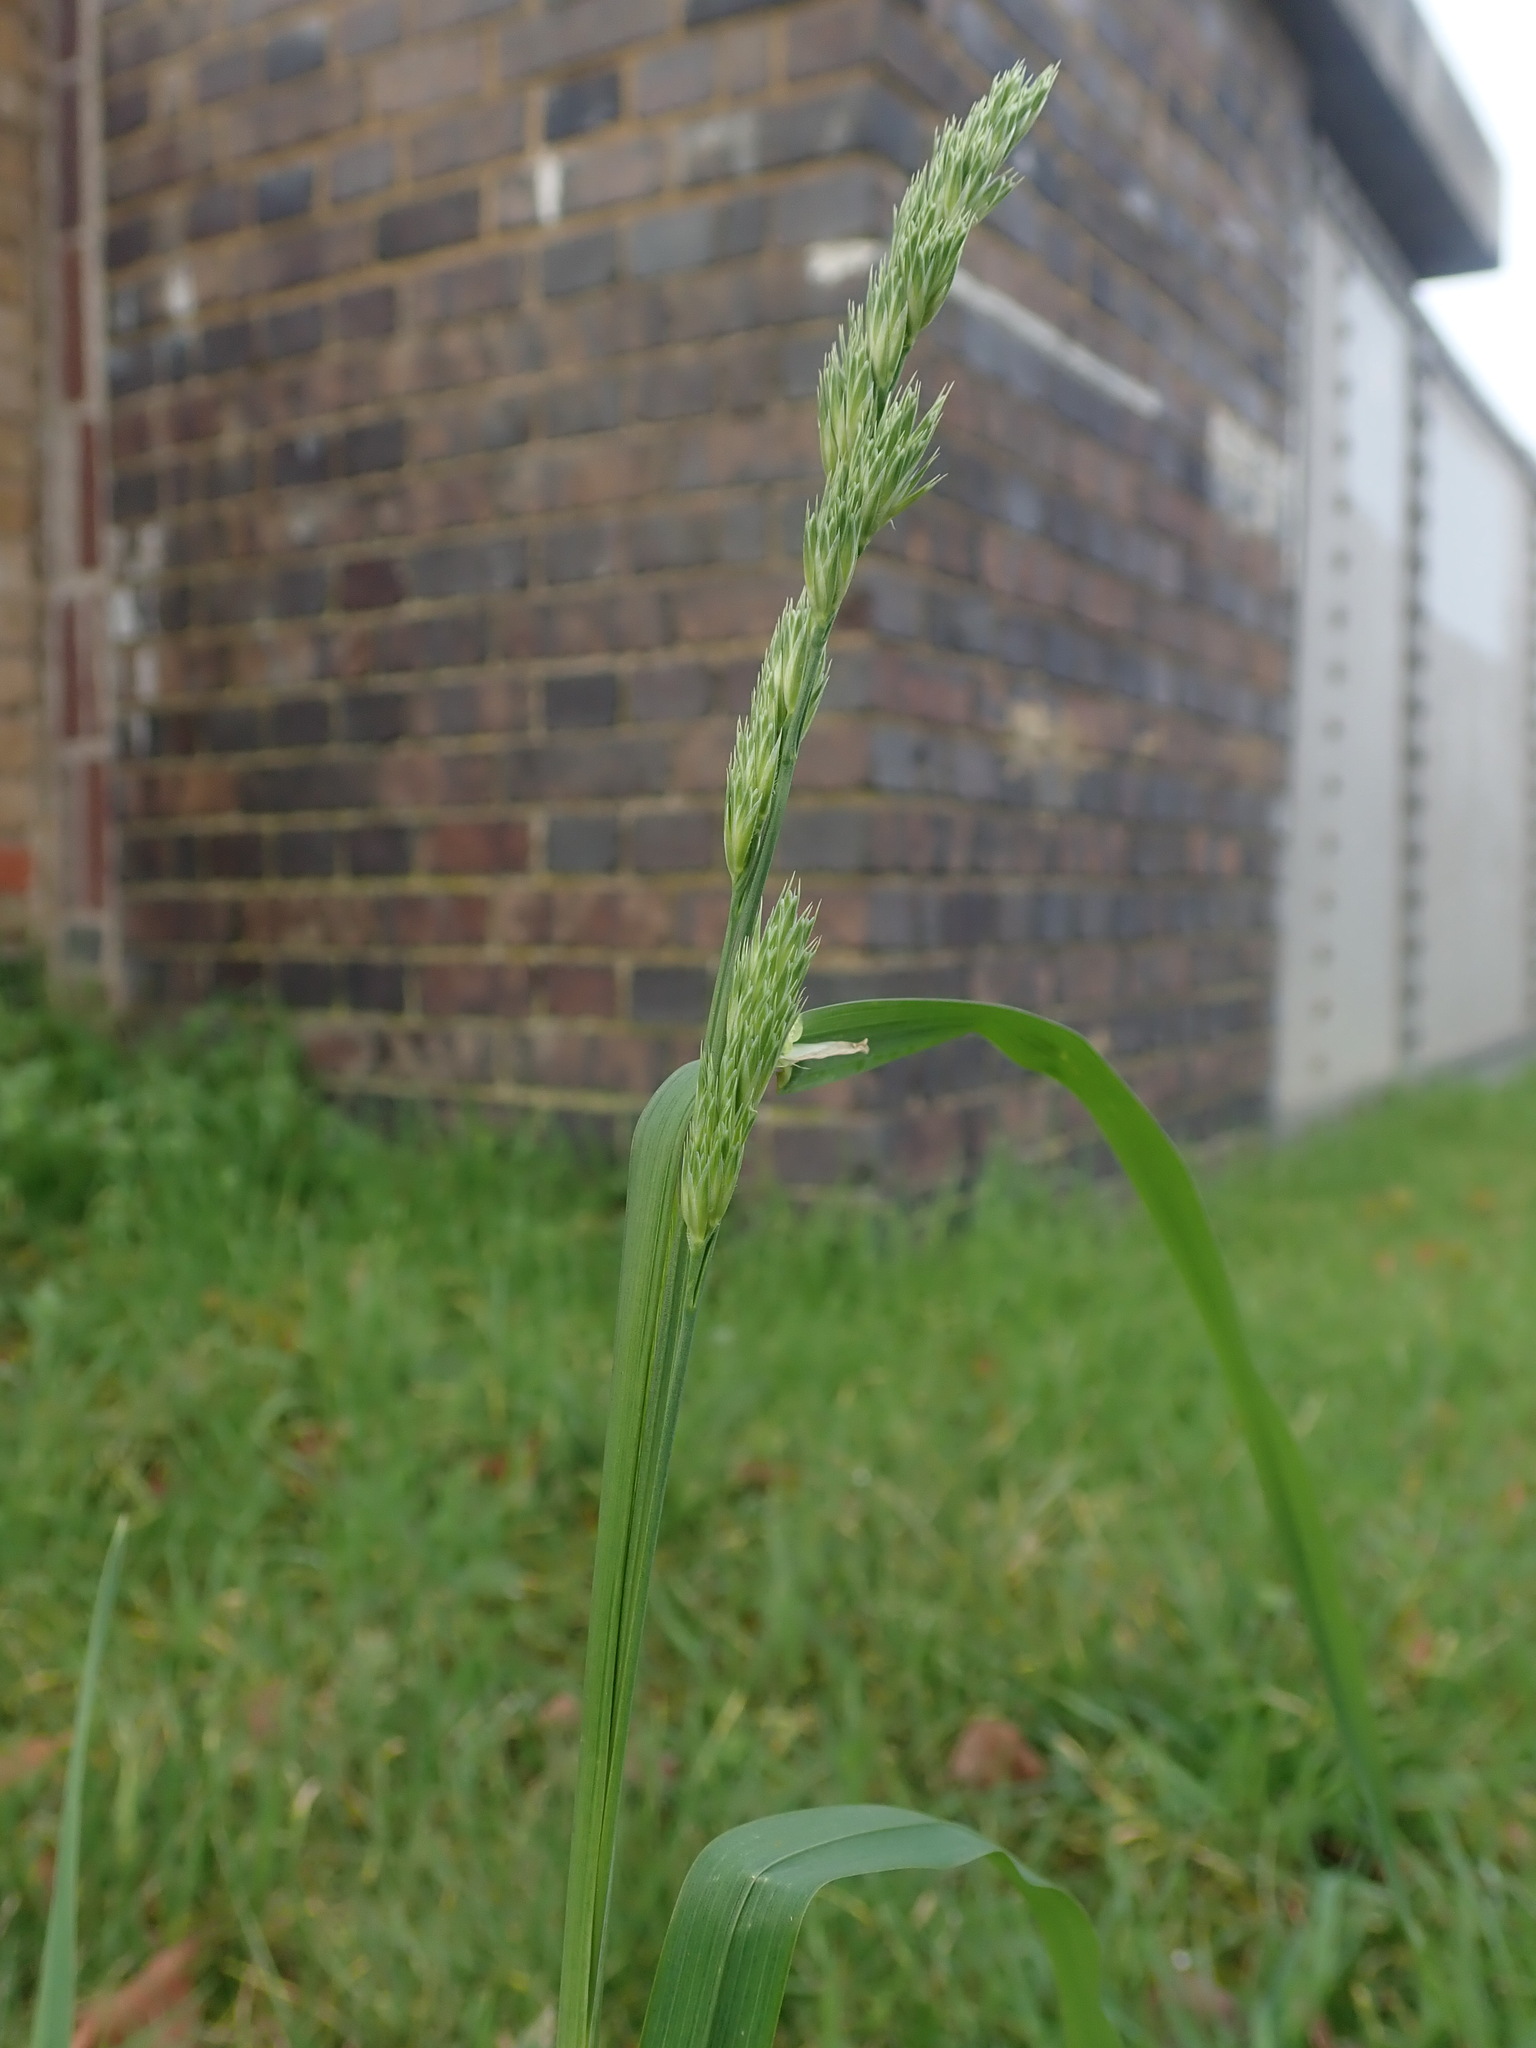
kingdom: Plantae
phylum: Tracheophyta
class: Liliopsida
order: Poales
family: Poaceae
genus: Dactylis
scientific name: Dactylis glomerata
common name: Orchardgrass
